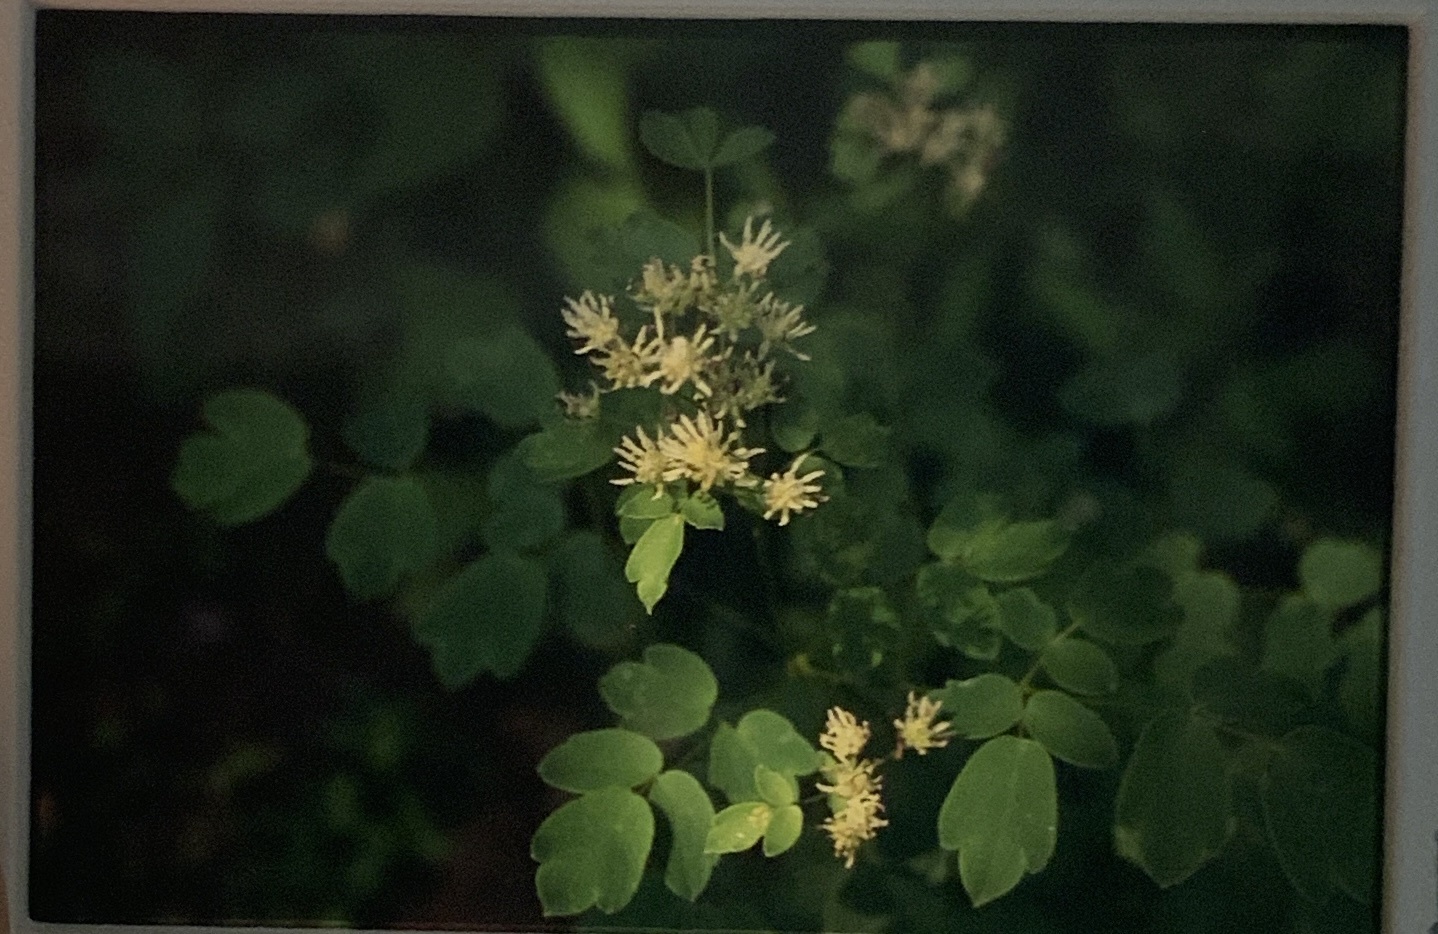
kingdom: Plantae
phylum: Tracheophyta
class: Magnoliopsida
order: Ranunculales
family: Ranunculaceae
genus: Thalictrum
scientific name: Thalictrum pubescens
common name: King-of-the-meadow
